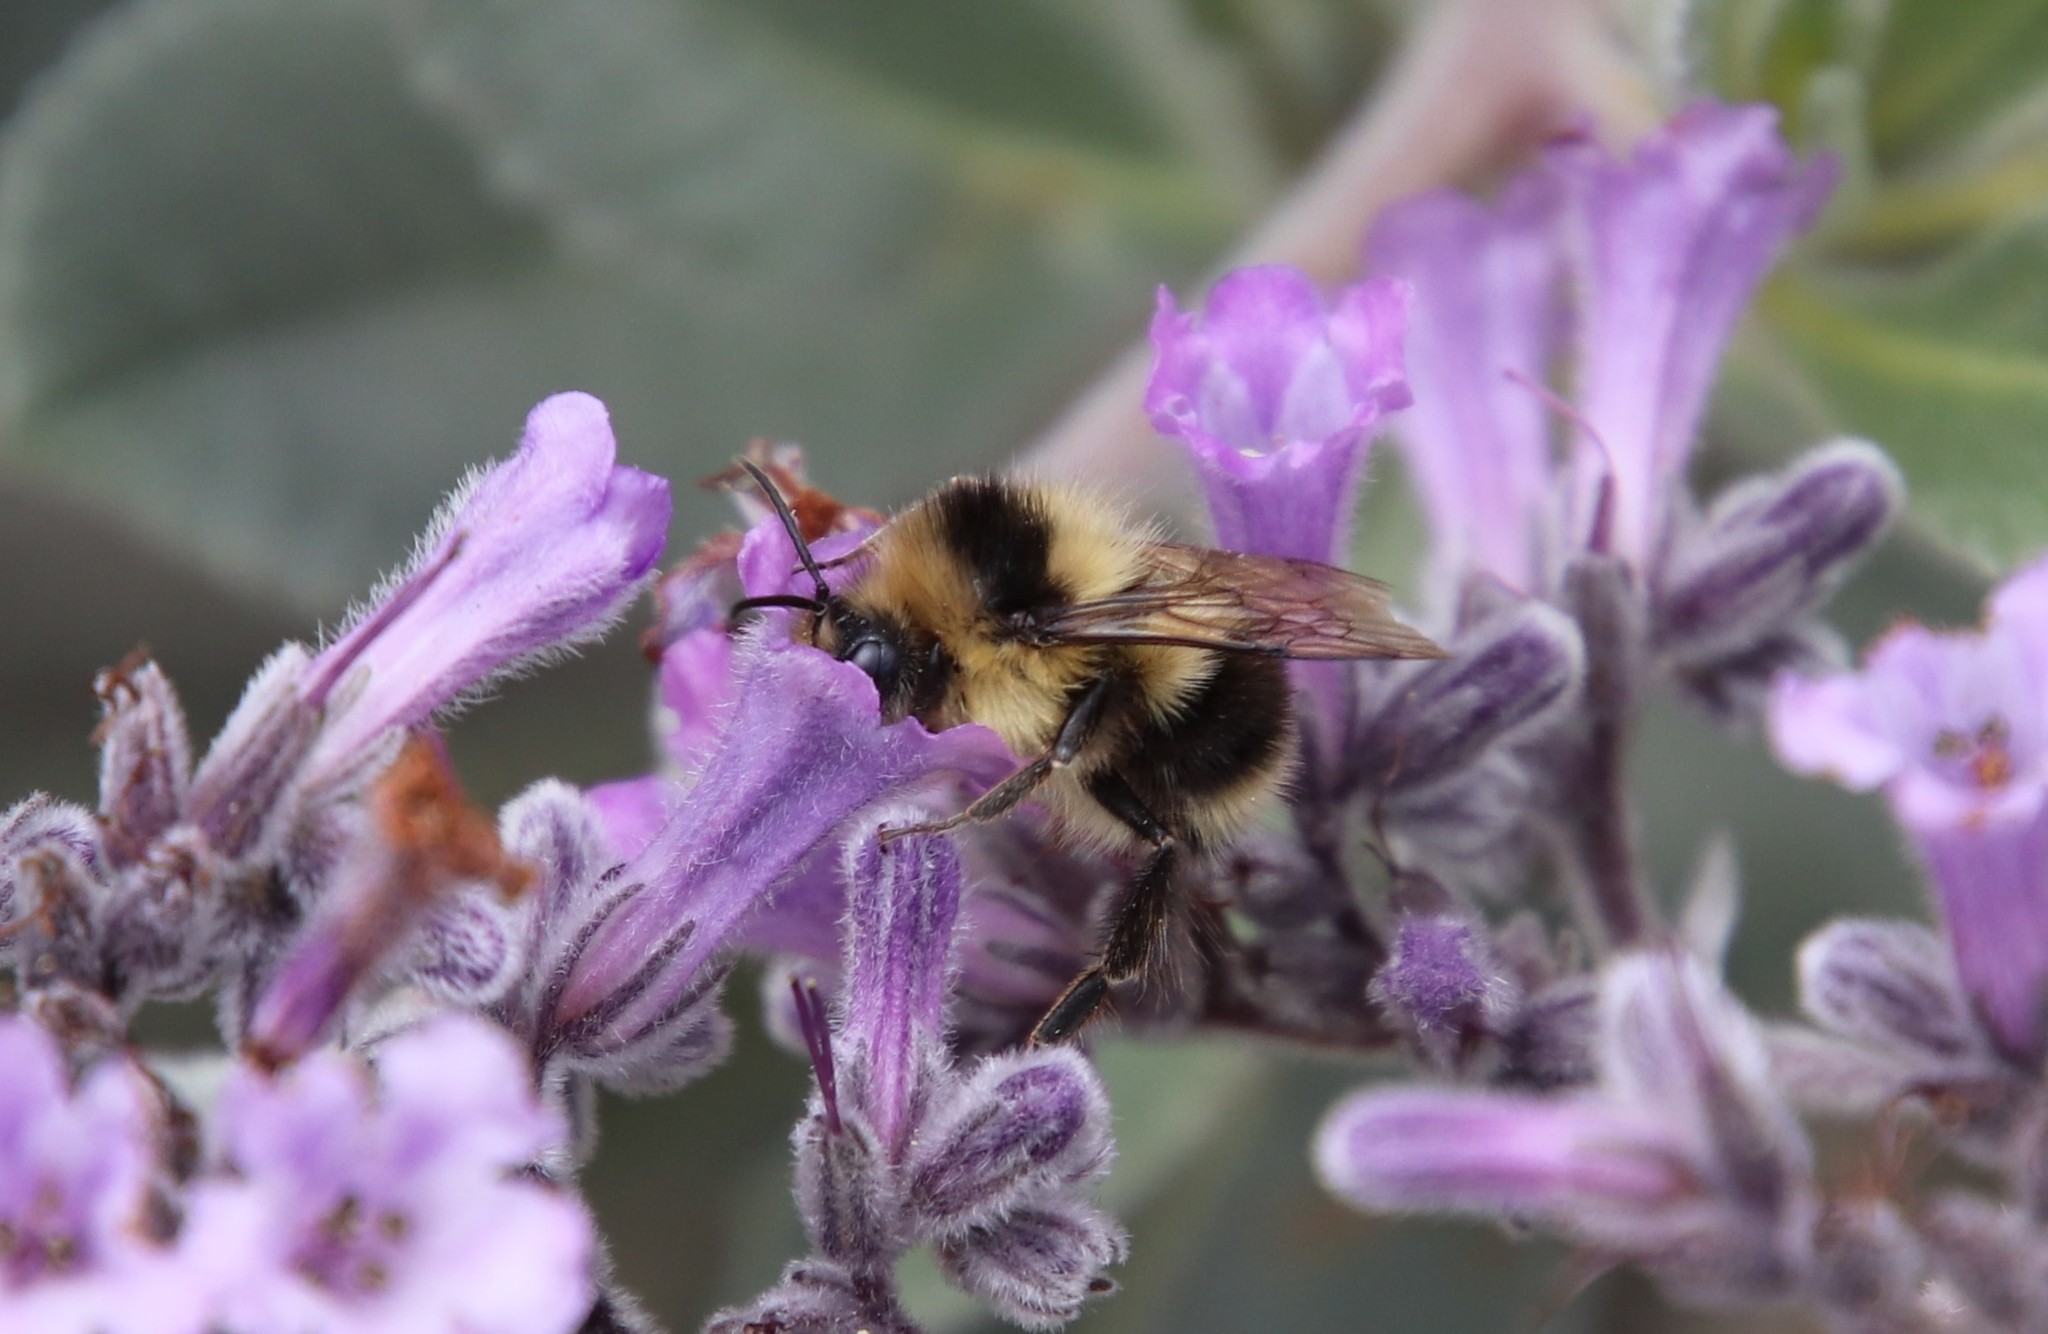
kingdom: Animalia
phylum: Arthropoda
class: Insecta
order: Hymenoptera
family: Apidae
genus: Bombus
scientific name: Bombus melanopygus
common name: Black tail bumble bee
